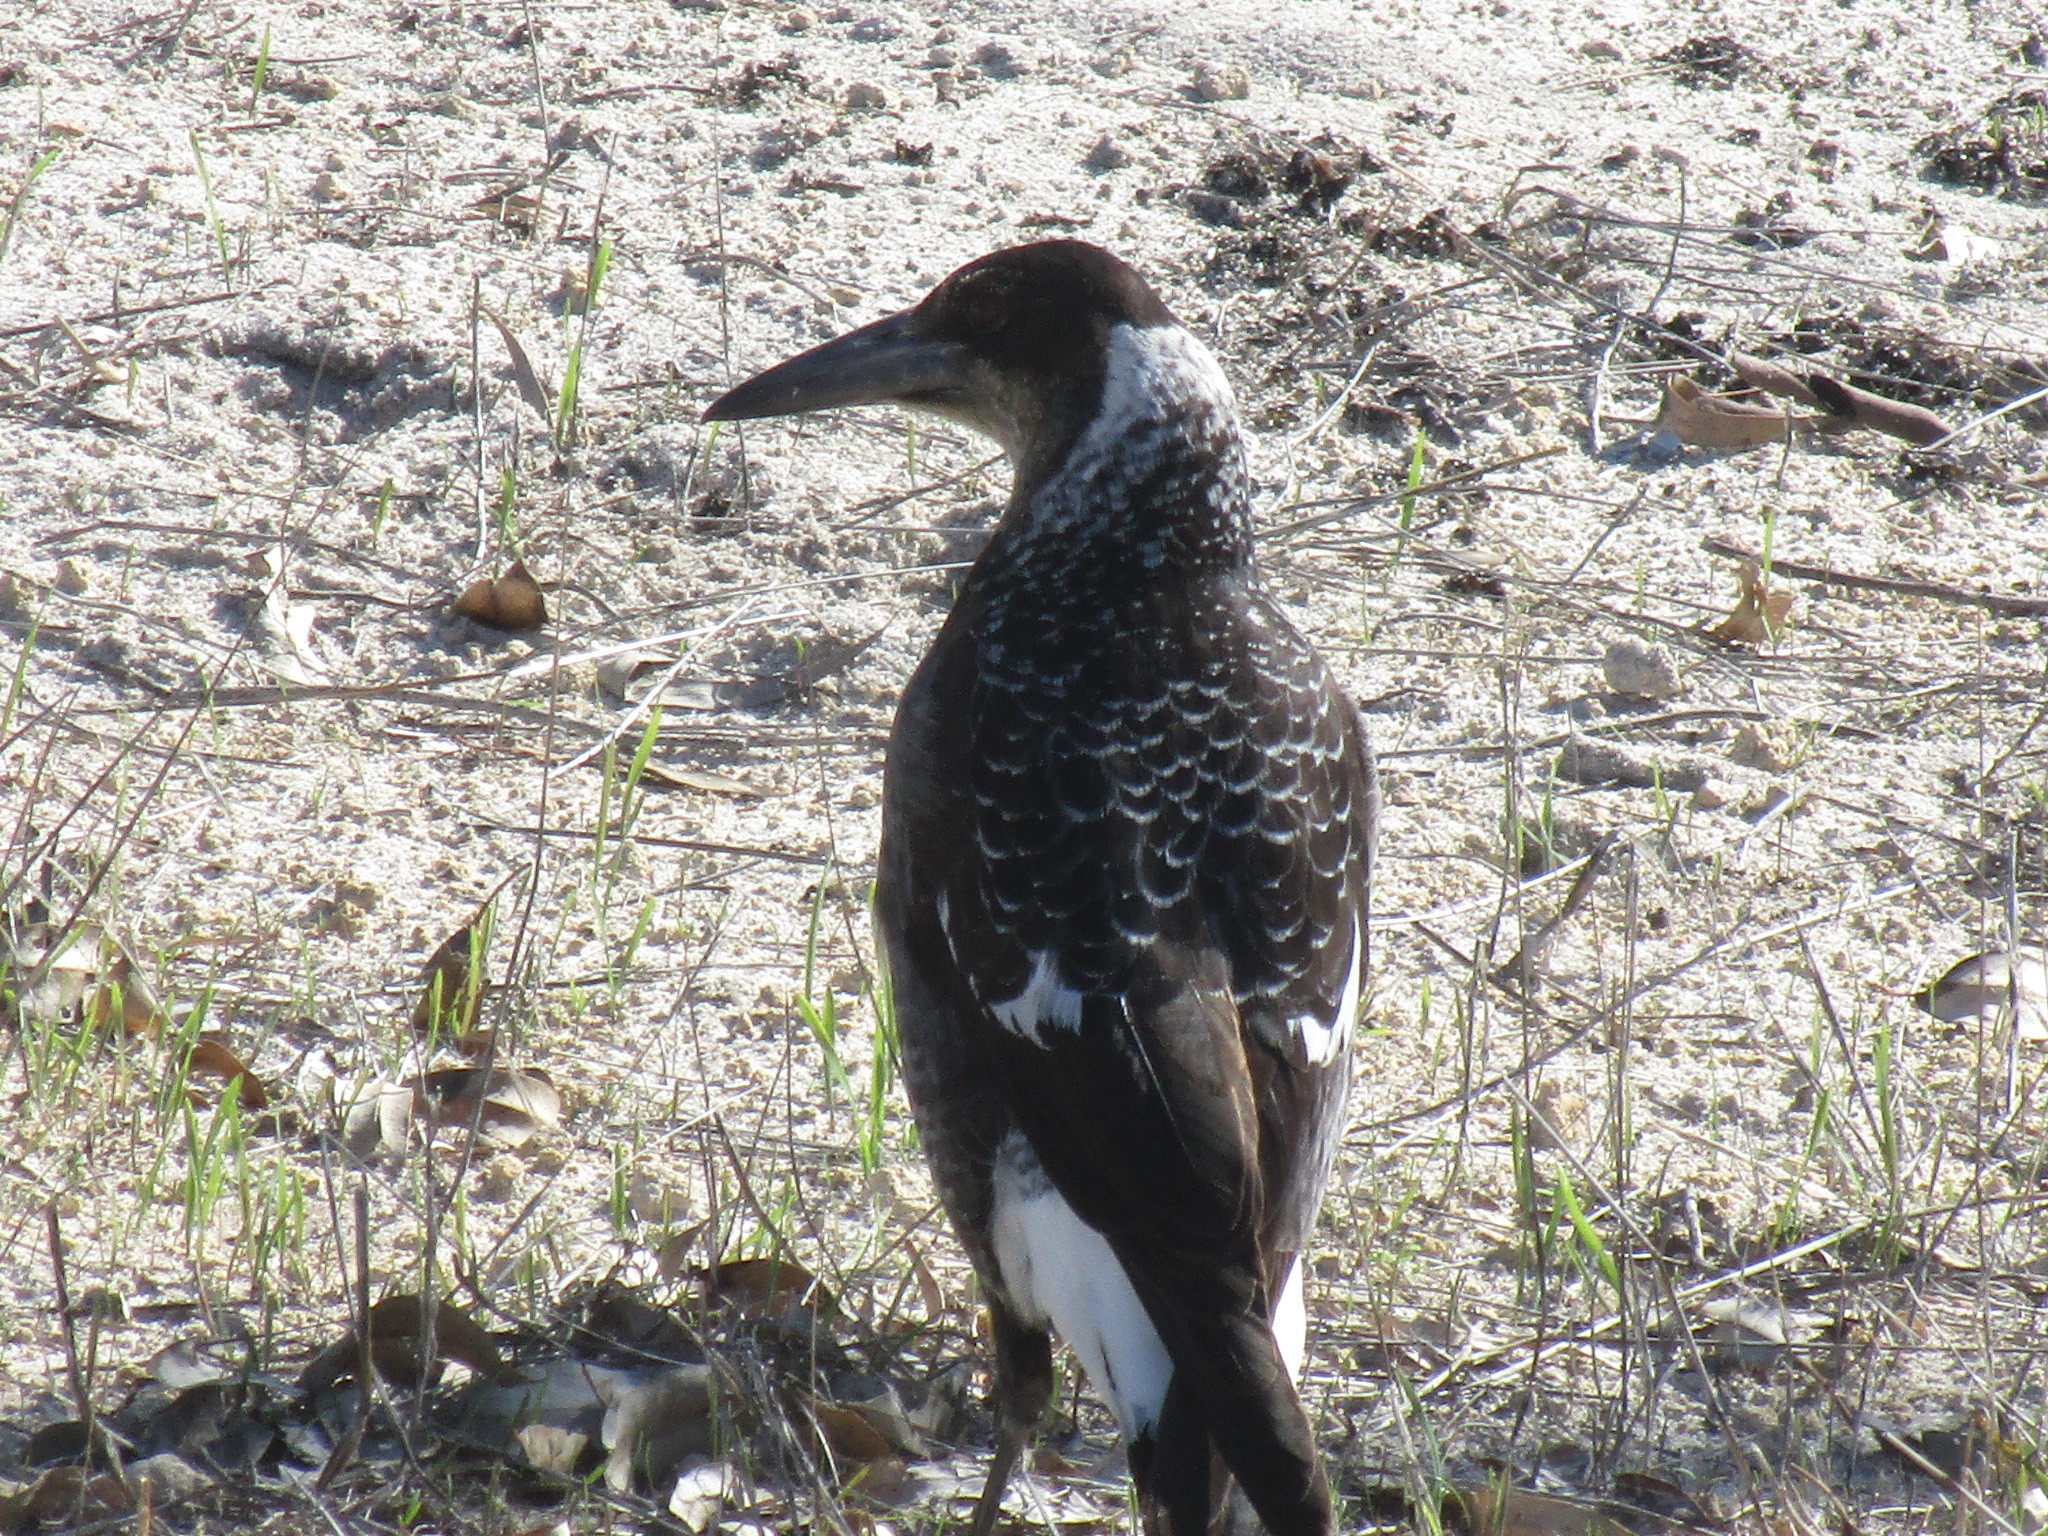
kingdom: Animalia
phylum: Chordata
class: Aves
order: Passeriformes
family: Cracticidae
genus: Gymnorhina
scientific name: Gymnorhina tibicen
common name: Australian magpie
